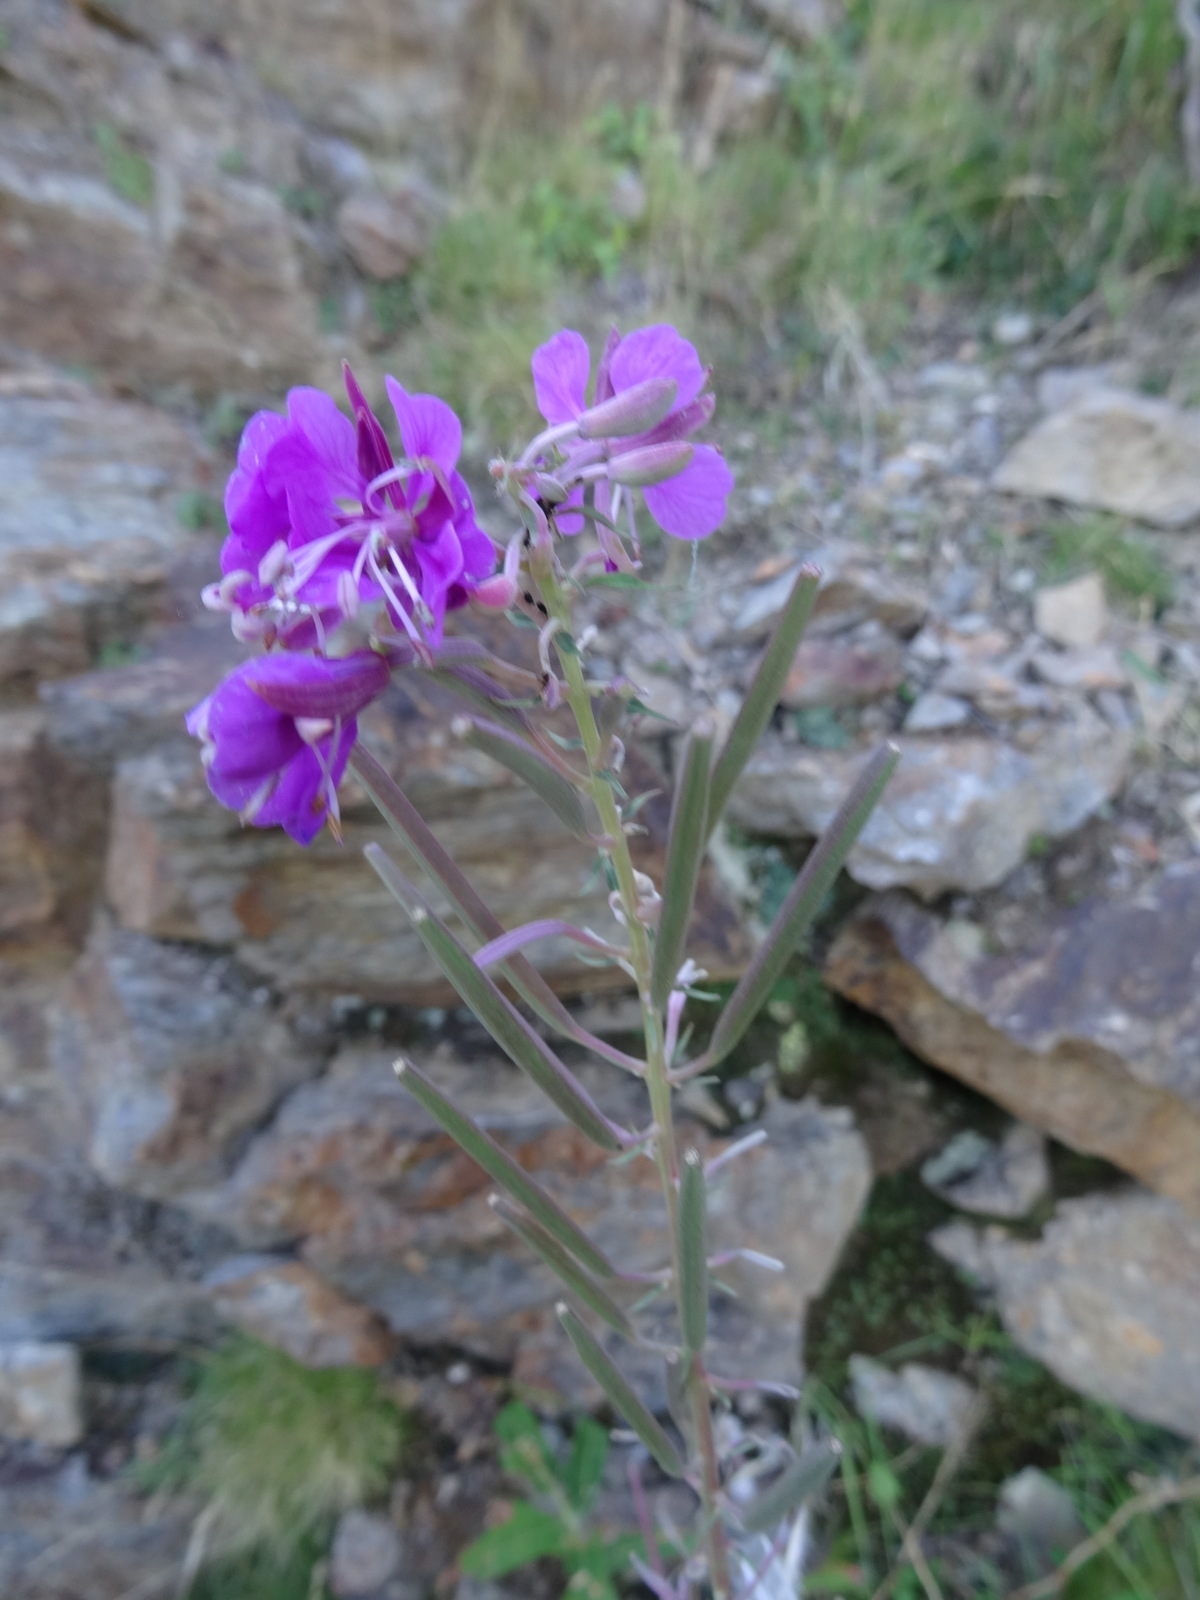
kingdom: Plantae
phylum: Tracheophyta
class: Magnoliopsida
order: Myrtales
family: Onagraceae
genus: Chamaenerion
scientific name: Chamaenerion angustifolium
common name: Fireweed
